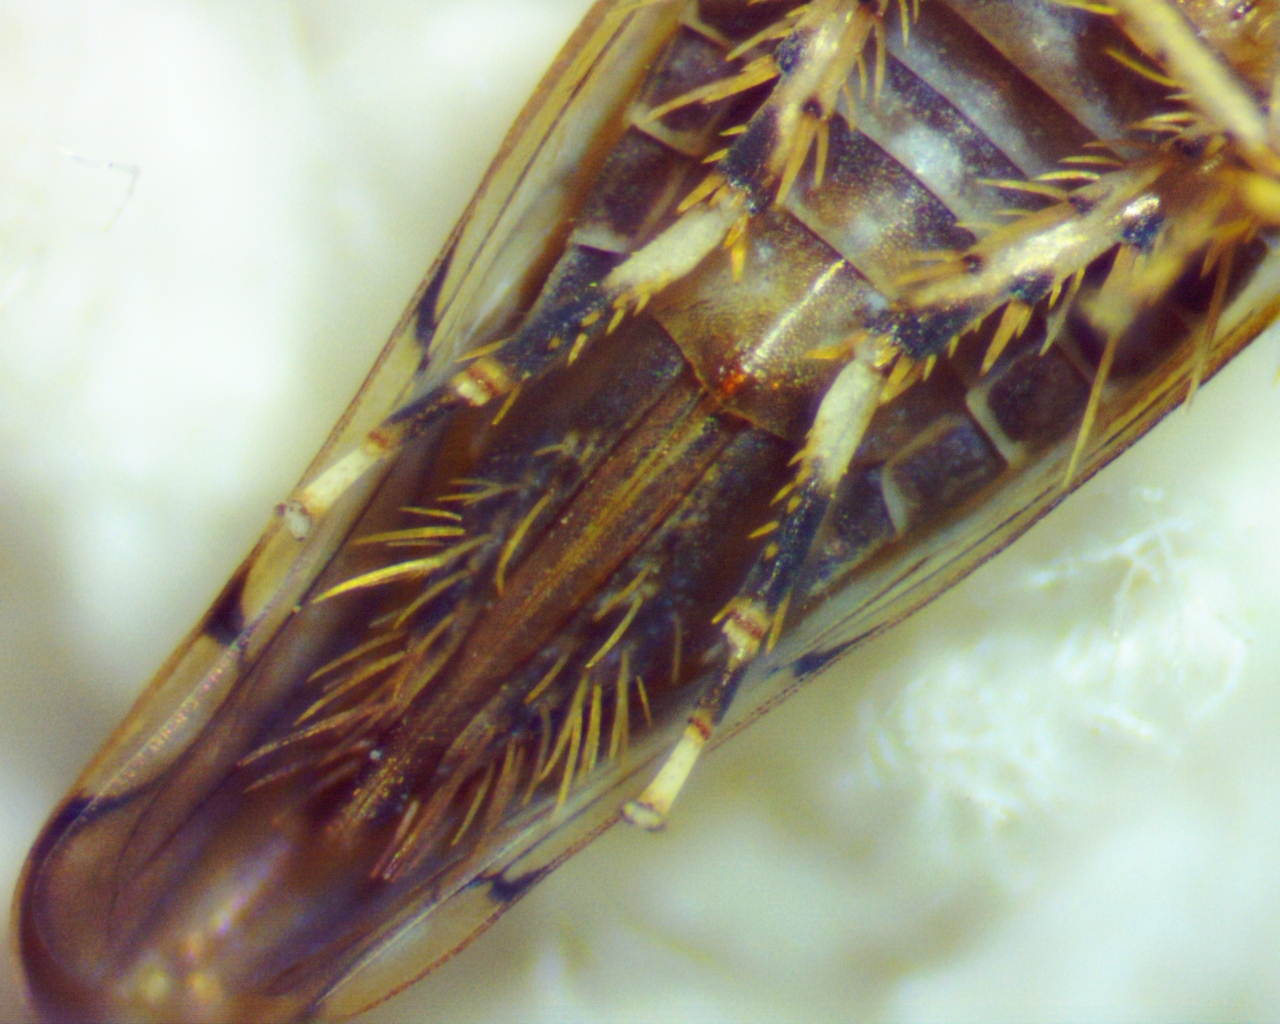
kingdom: Animalia
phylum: Arthropoda
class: Insecta
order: Hemiptera
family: Cicadellidae
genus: Osbornellus
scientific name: Osbornellus rotundus
